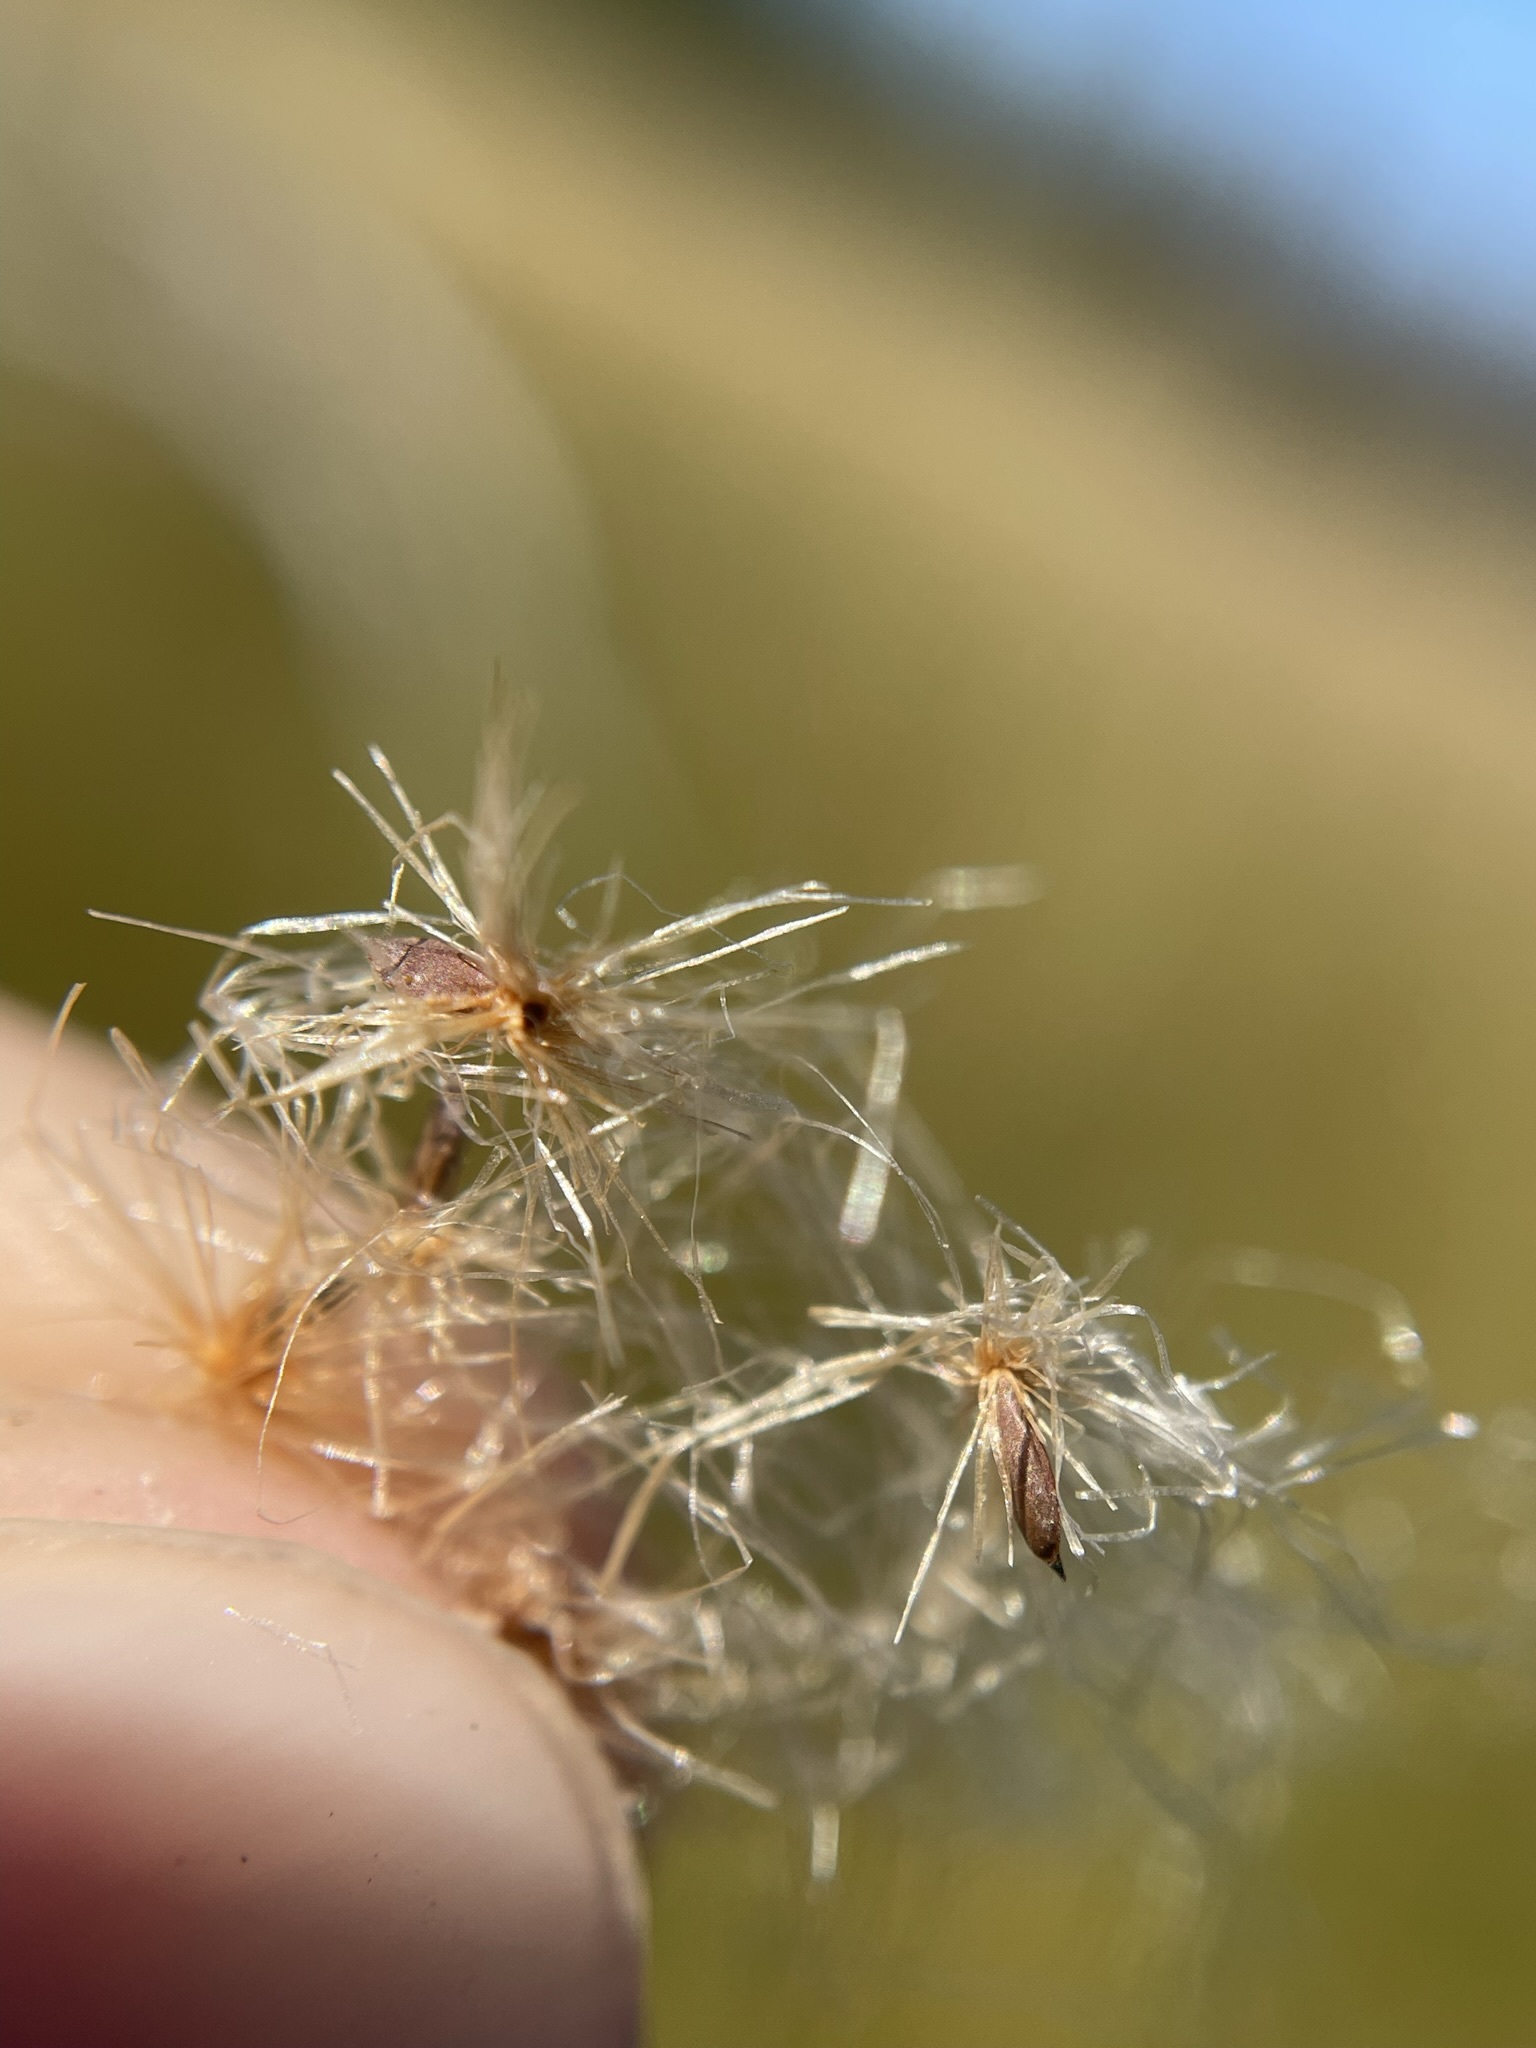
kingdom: Plantae
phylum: Tracheophyta
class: Liliopsida
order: Poales
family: Cyperaceae
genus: Eriophorum
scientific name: Eriophorum chamissonis
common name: Chamisso's cottongrass
